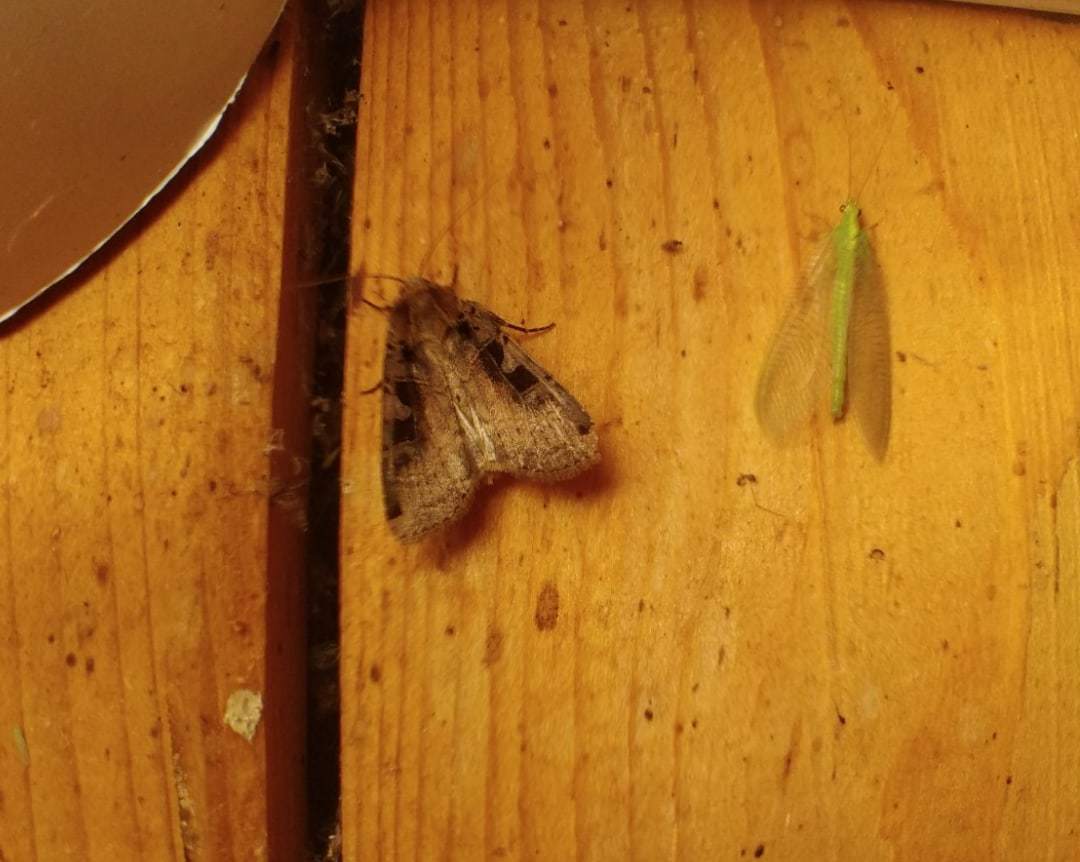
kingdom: Animalia
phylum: Arthropoda
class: Insecta
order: Lepidoptera
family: Noctuidae
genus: Xestia
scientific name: Xestia ditrapezium
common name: Triple-spotted clay
